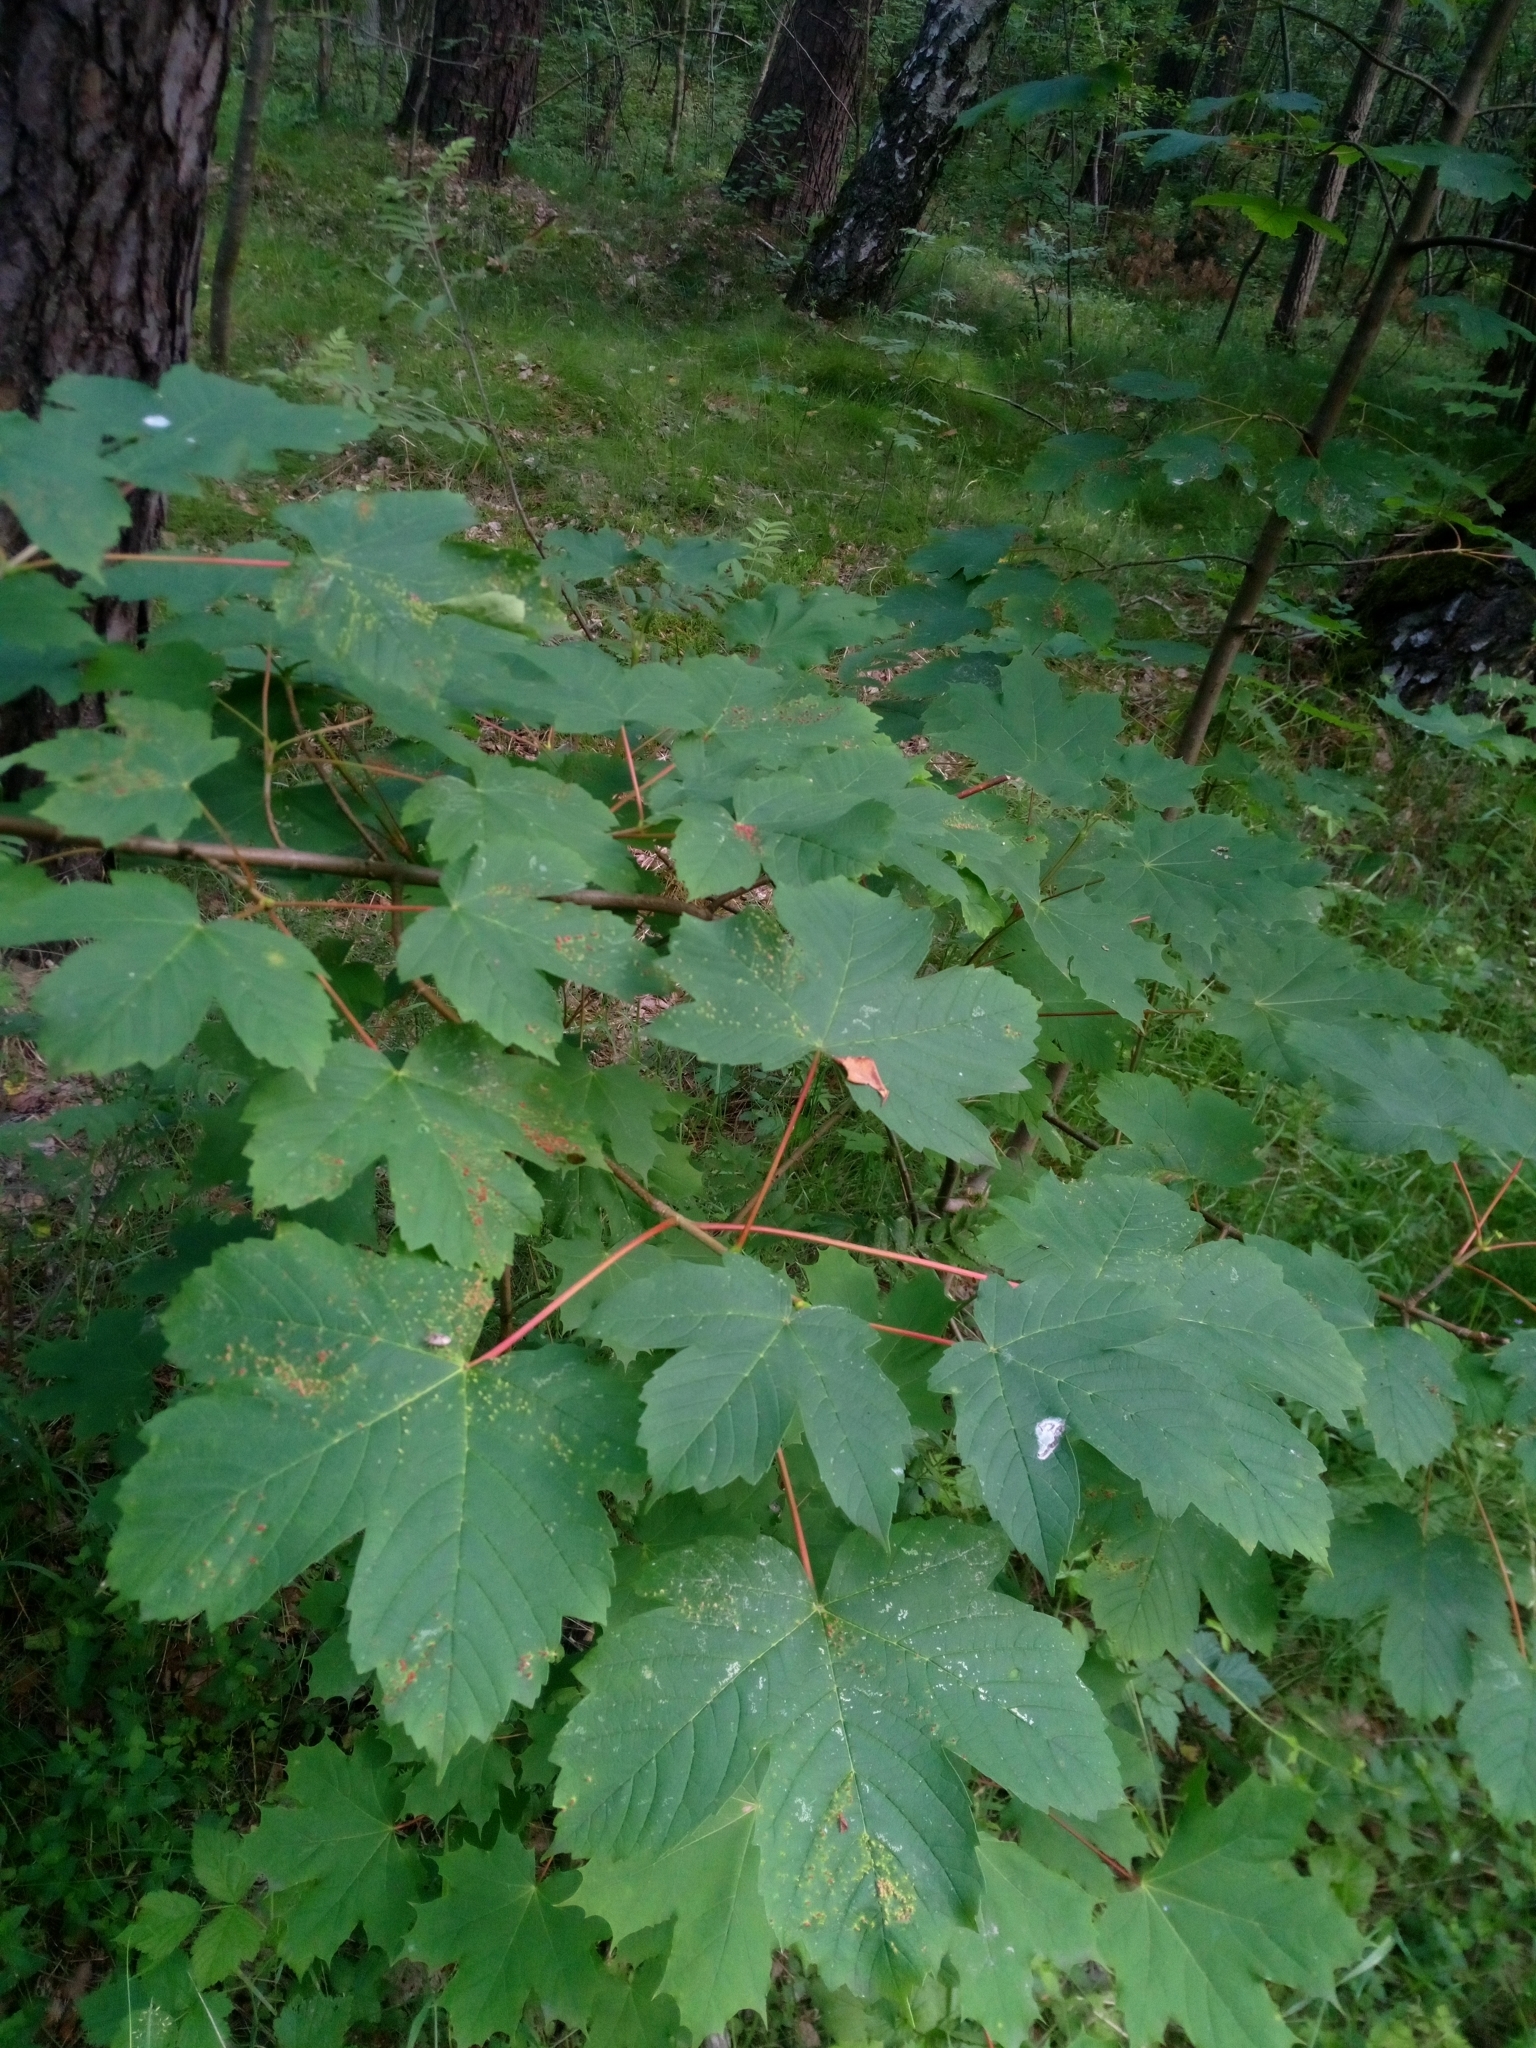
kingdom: Plantae
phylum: Tracheophyta
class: Magnoliopsida
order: Sapindales
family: Sapindaceae
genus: Acer
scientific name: Acer pseudoplatanus
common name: Sycamore
